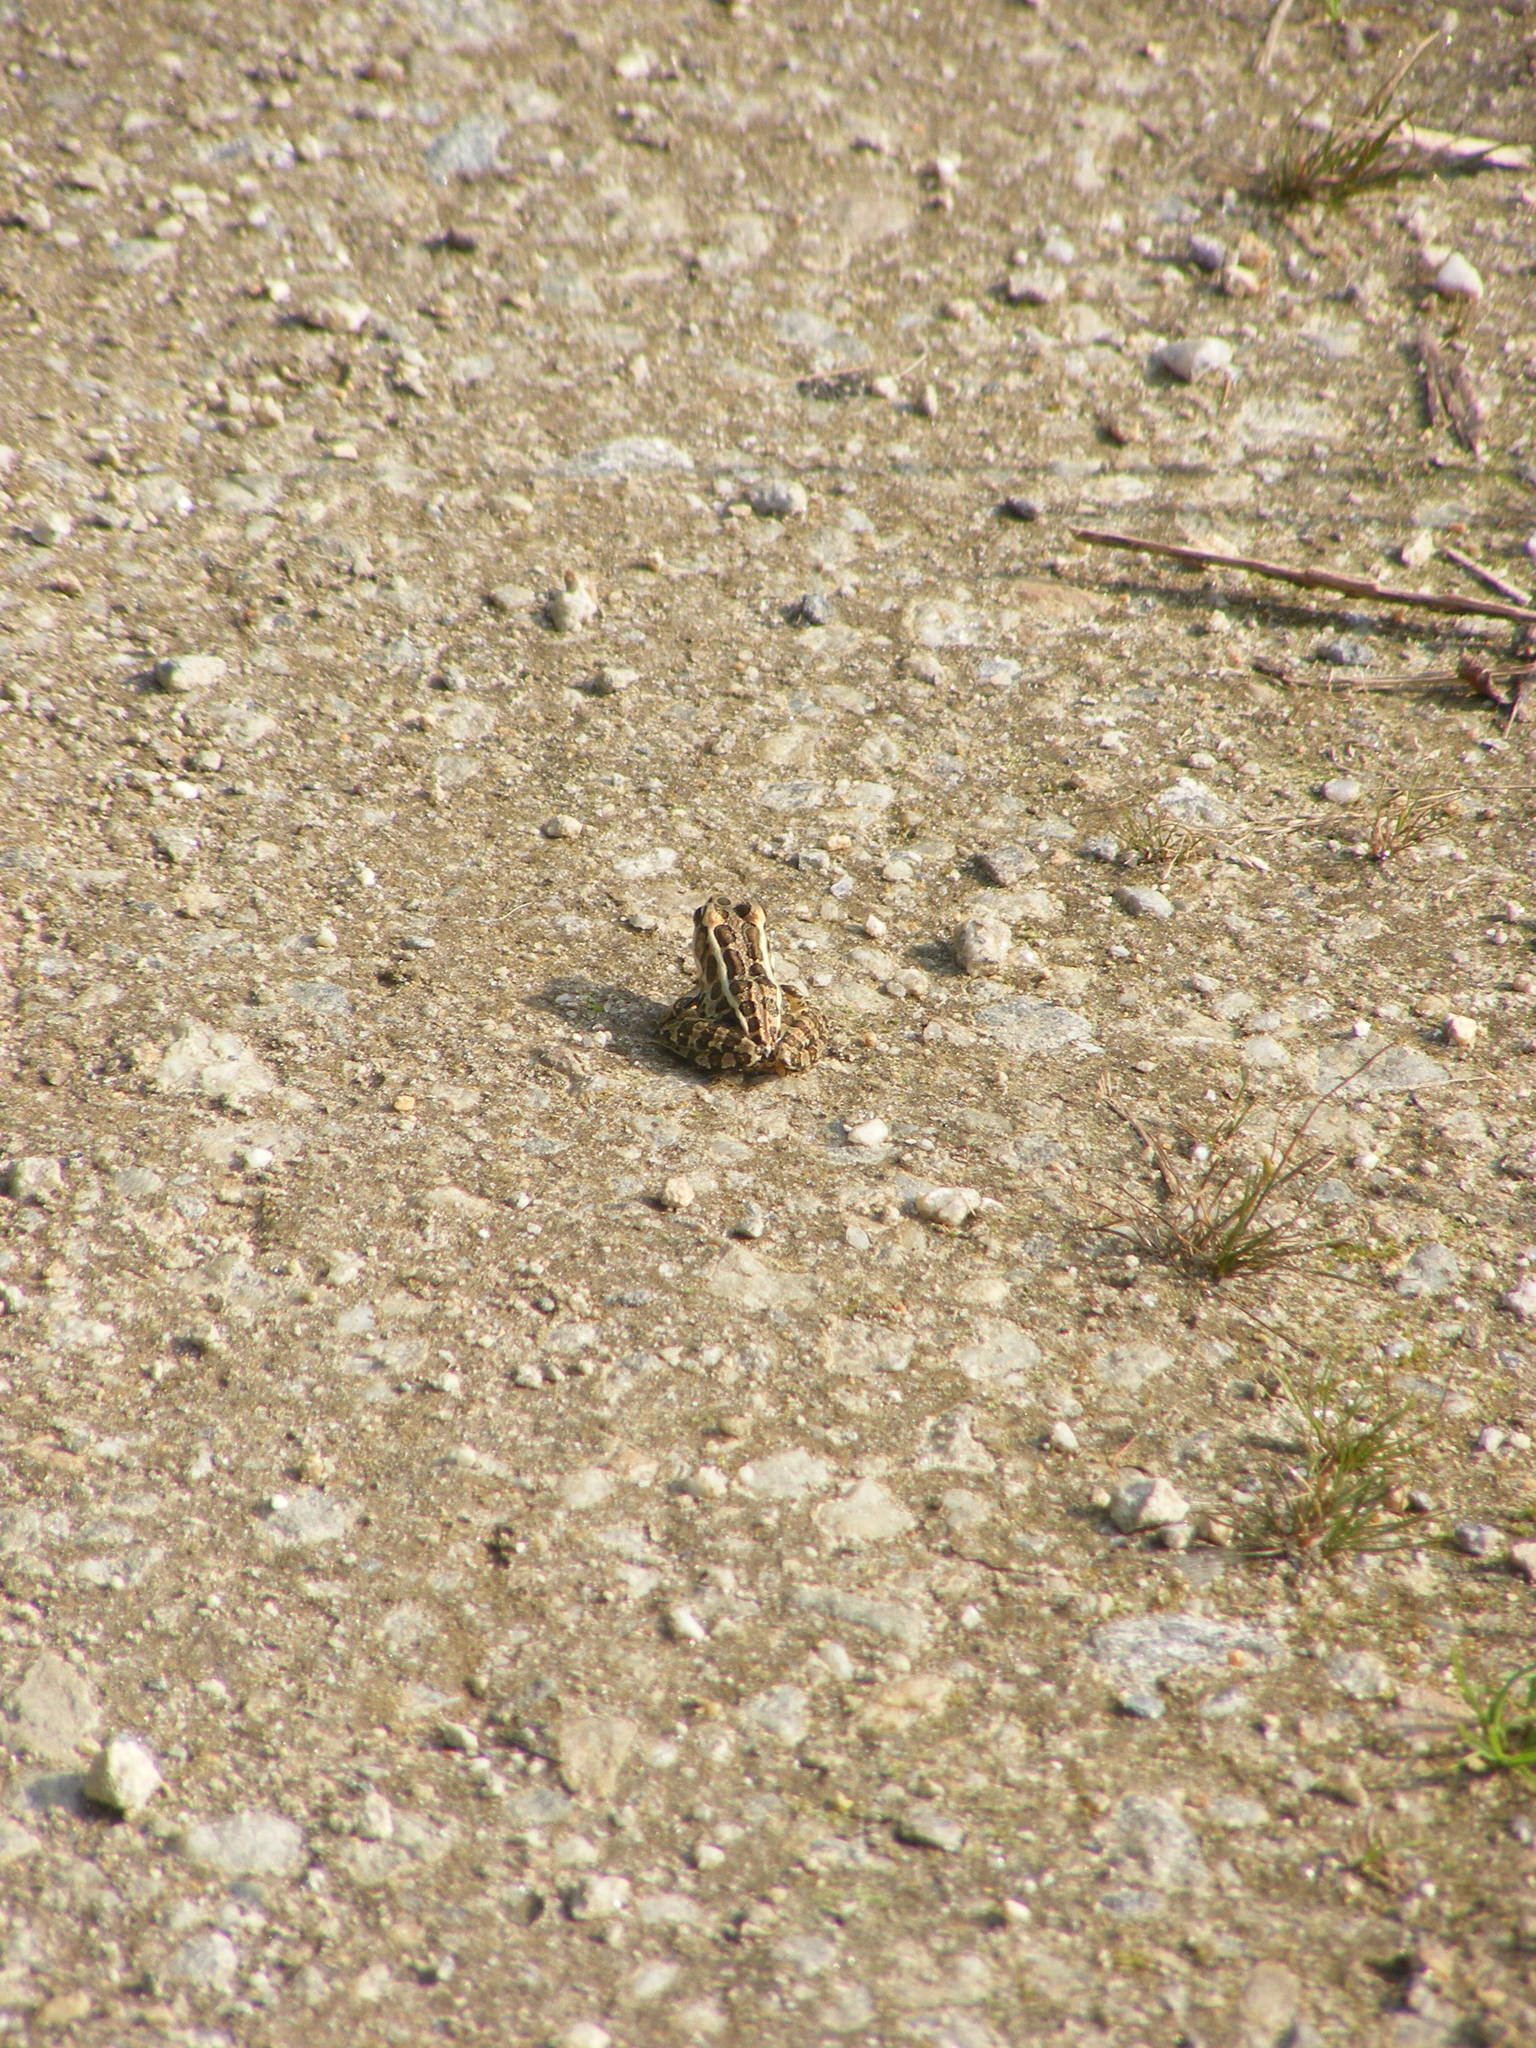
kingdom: Animalia
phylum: Chordata
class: Amphibia
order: Anura
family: Ranidae
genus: Lithobates
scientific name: Lithobates palustris
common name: Pickerel frog
